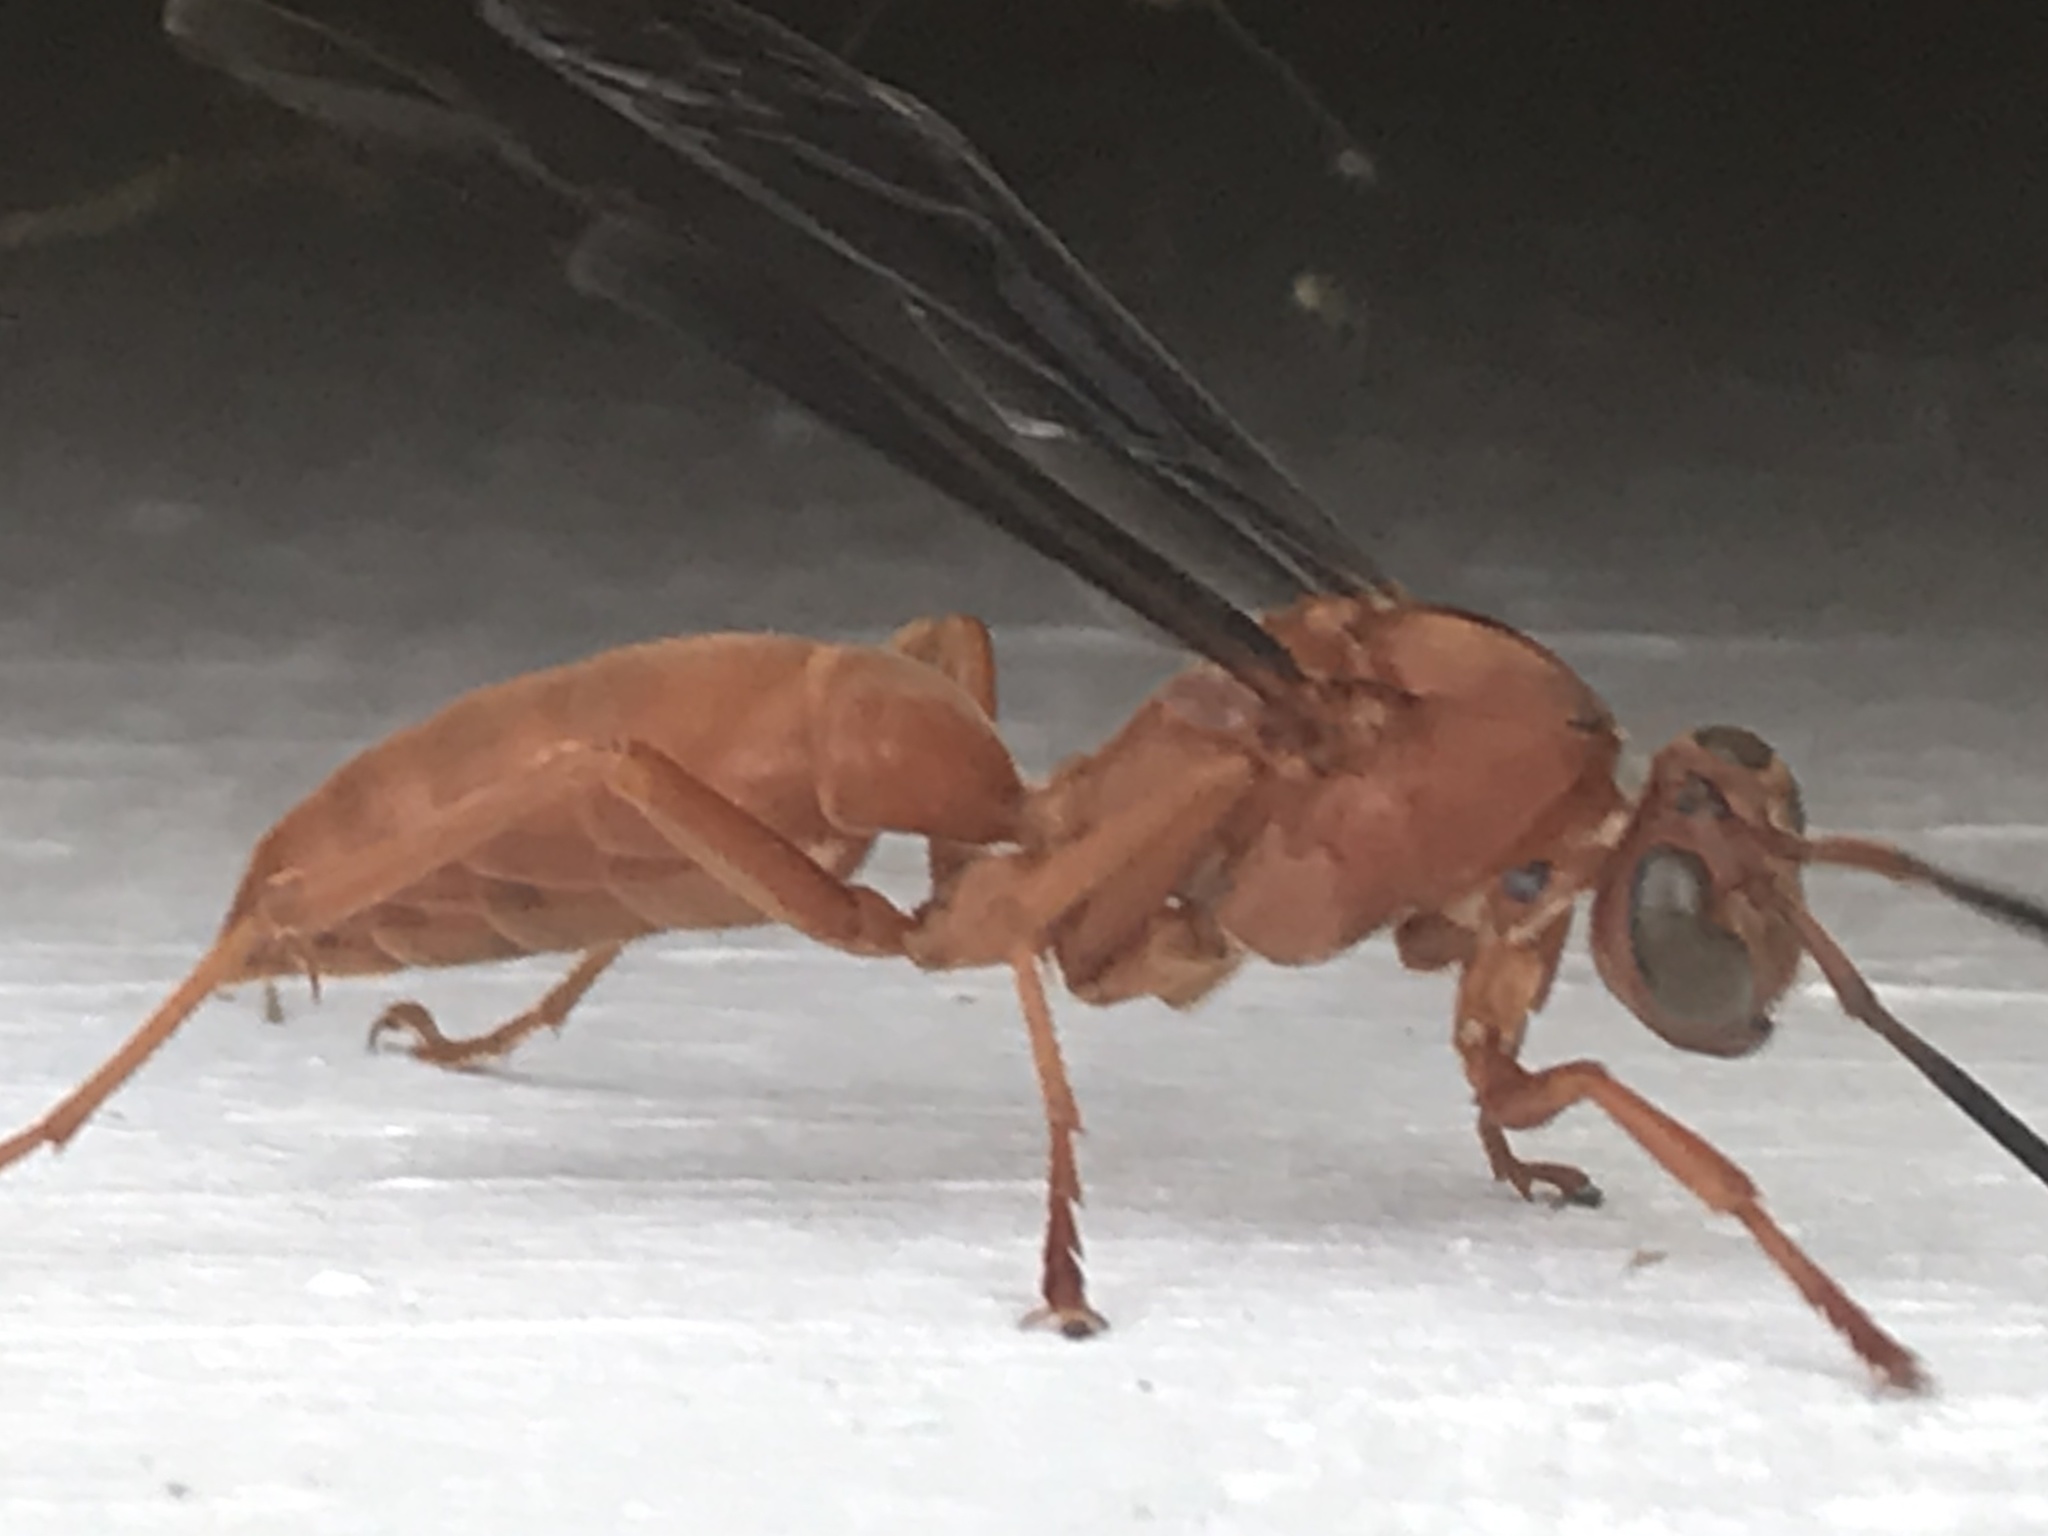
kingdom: Animalia
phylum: Arthropoda
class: Insecta
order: Hymenoptera
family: Eumenidae
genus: Polistes
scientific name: Polistes carolina
